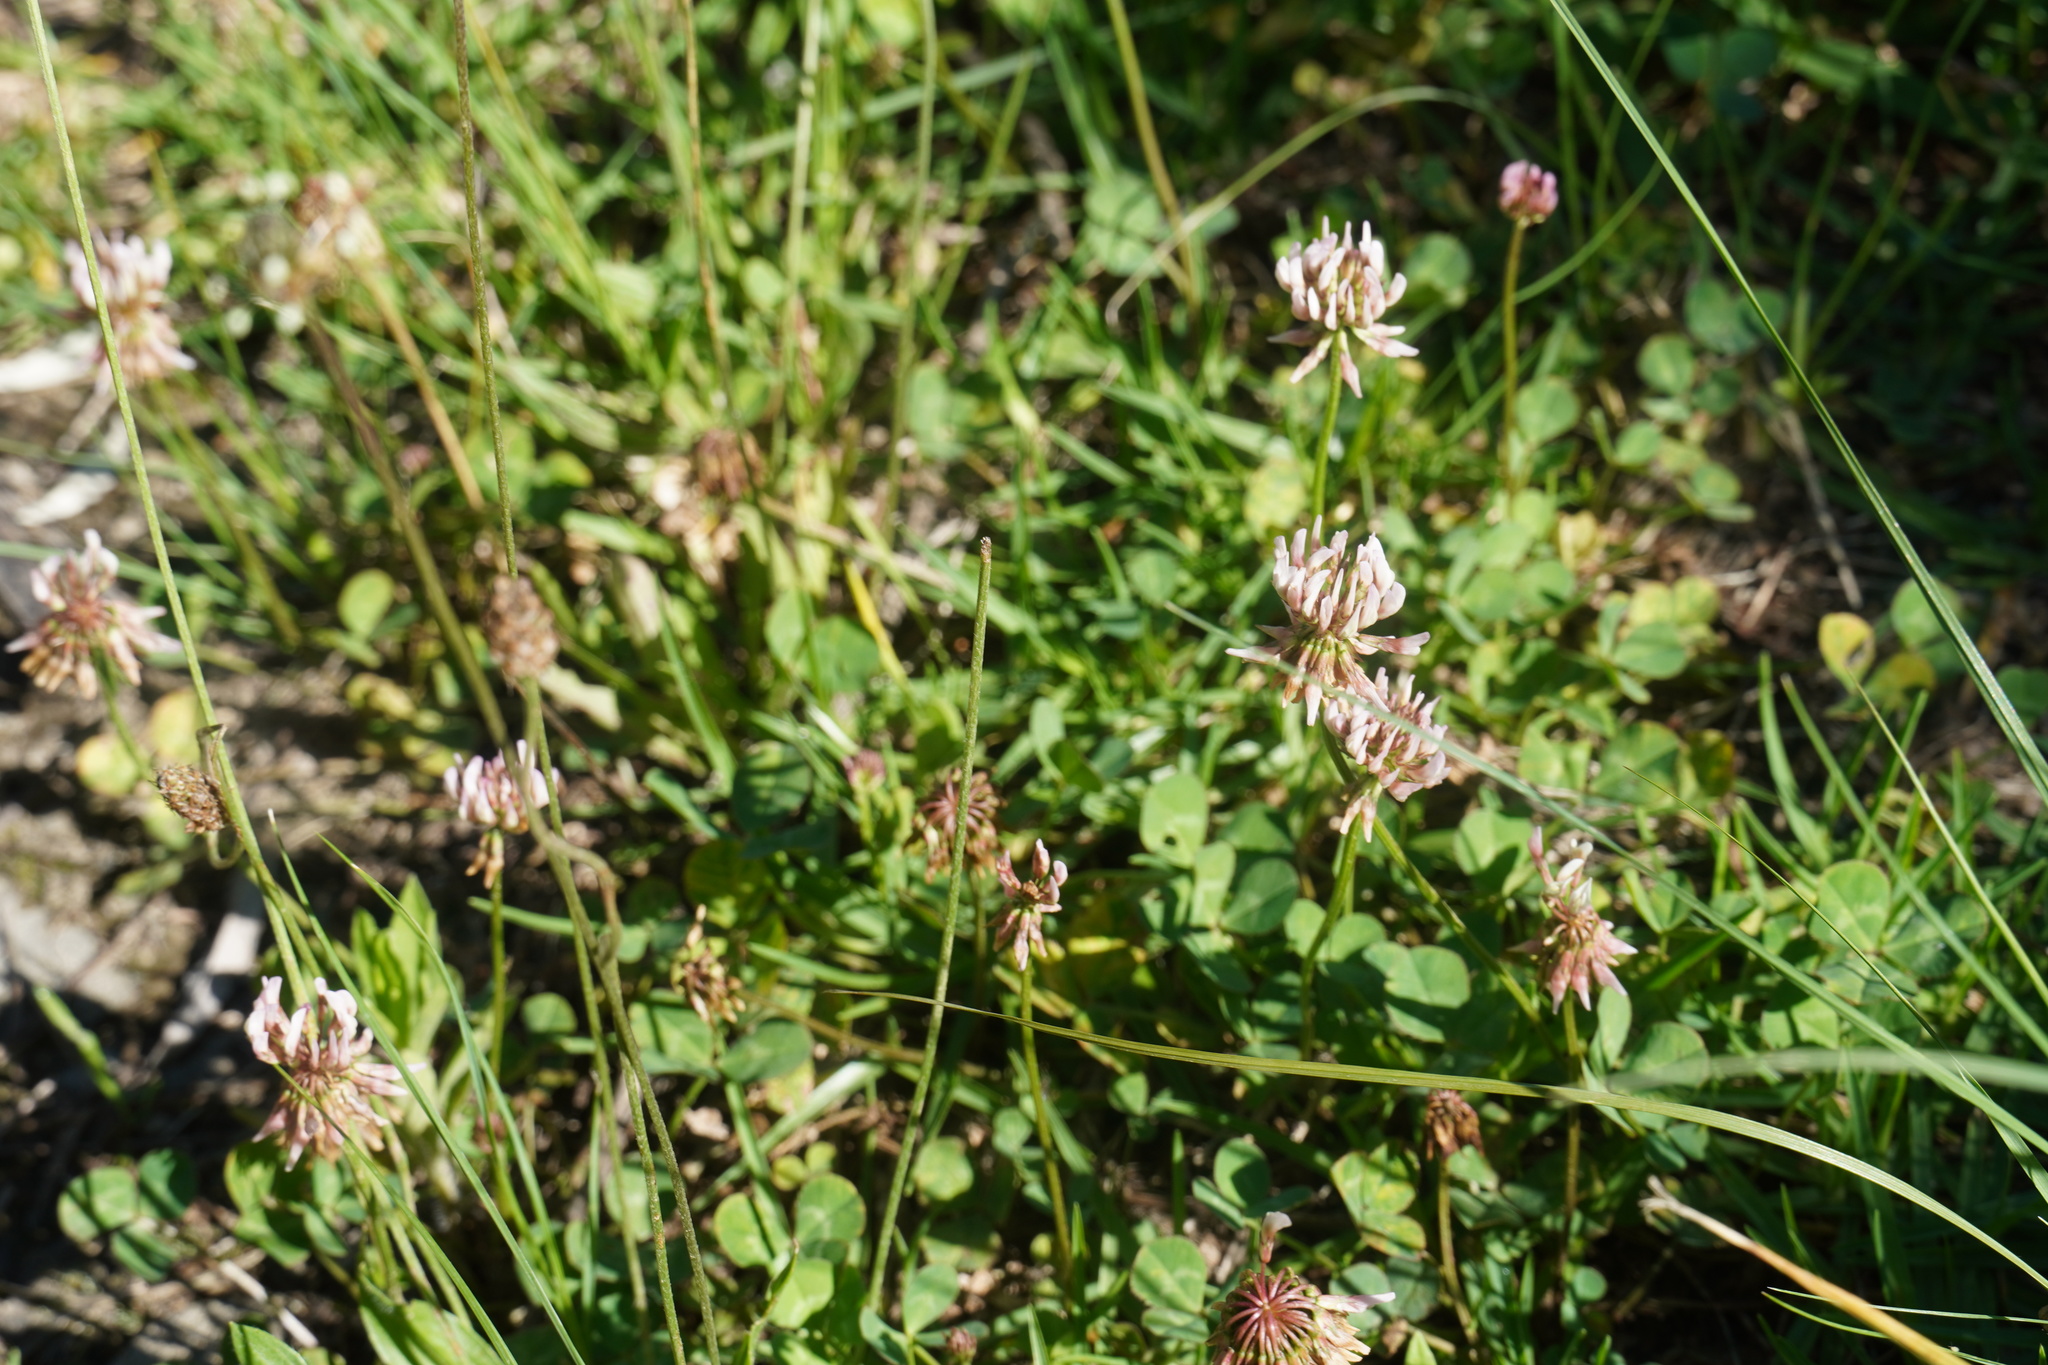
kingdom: Plantae
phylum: Tracheophyta
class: Magnoliopsida
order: Fabales
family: Fabaceae
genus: Trifolium
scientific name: Trifolium repens
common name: White clover
